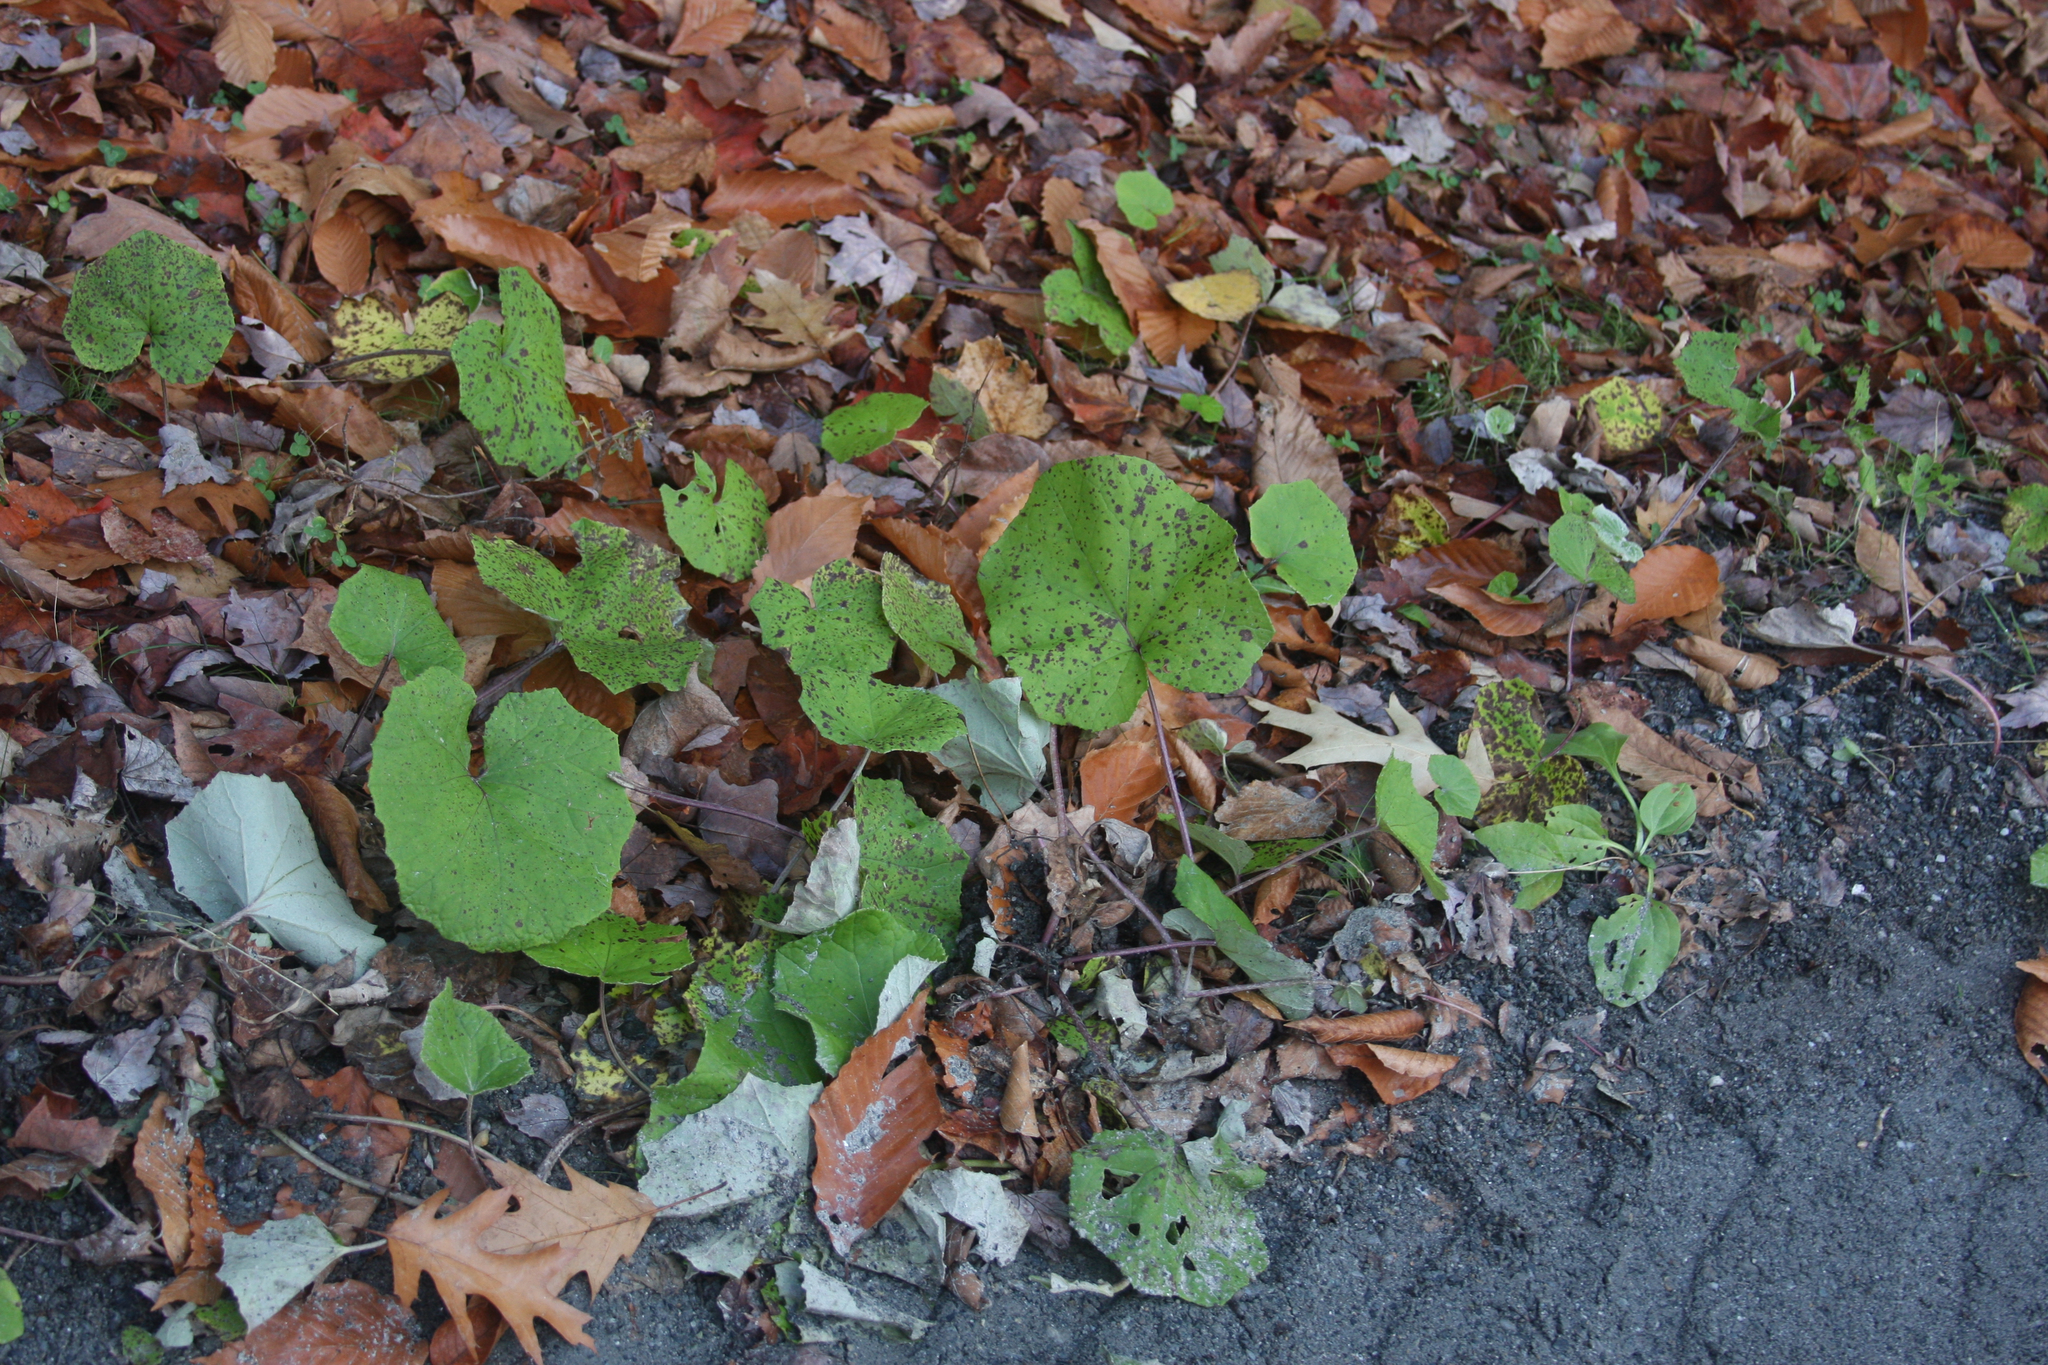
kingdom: Plantae
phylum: Tracheophyta
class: Magnoliopsida
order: Asterales
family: Asteraceae
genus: Tussilago
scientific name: Tussilago farfara
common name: Coltsfoot
